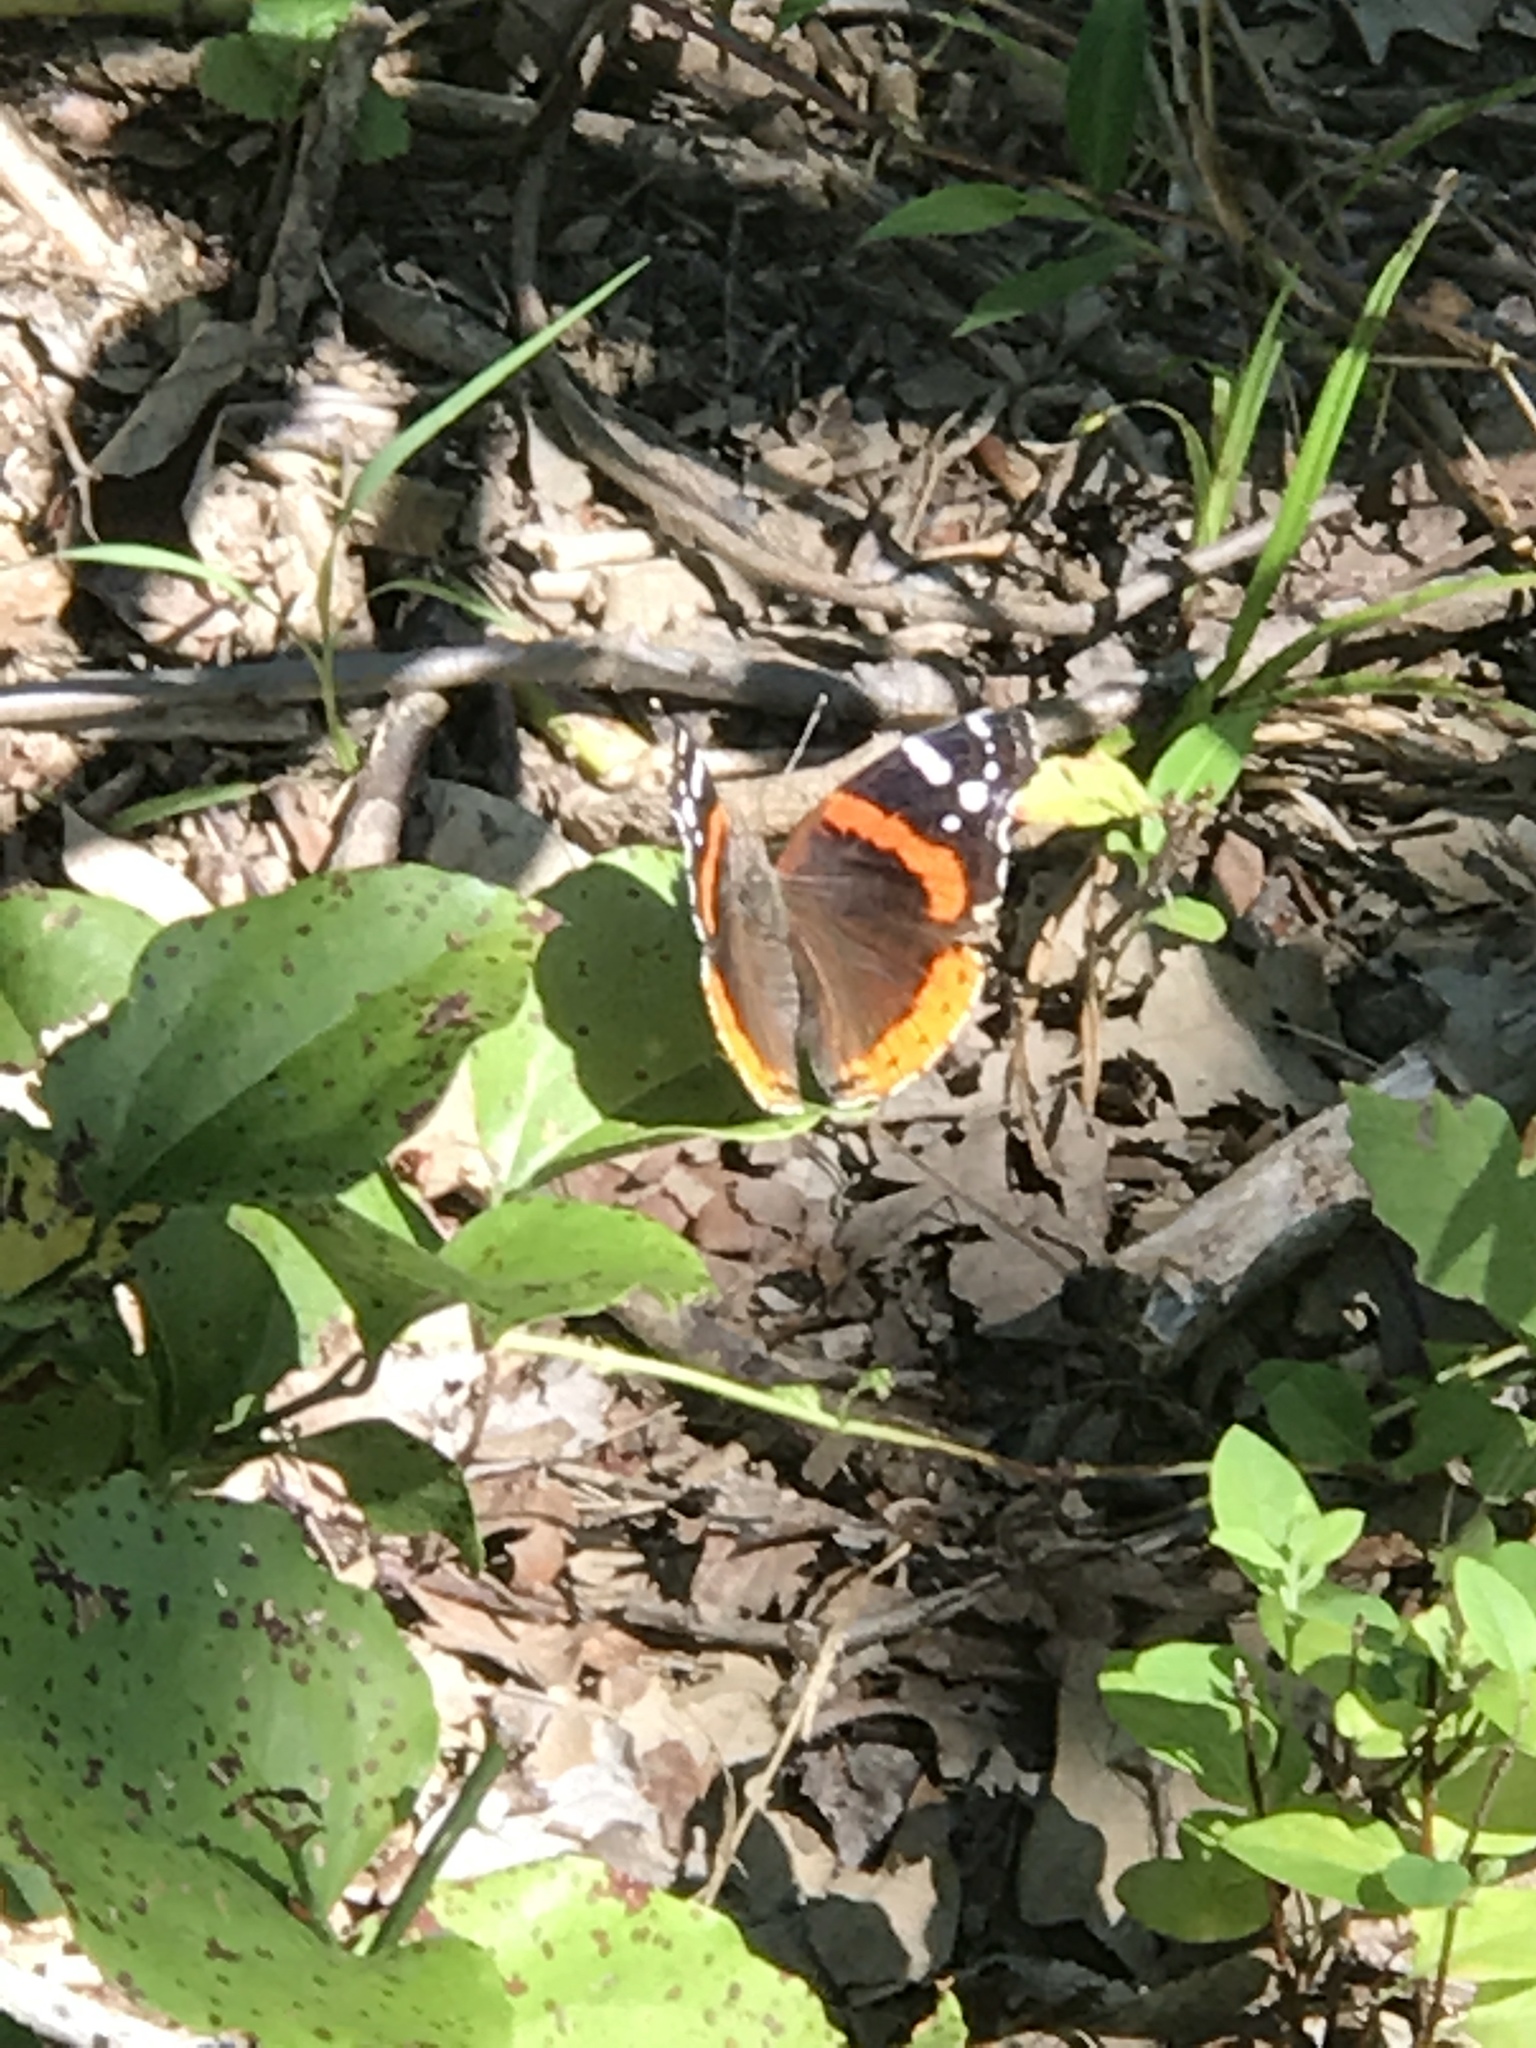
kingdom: Animalia
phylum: Arthropoda
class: Insecta
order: Lepidoptera
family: Nymphalidae
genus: Vanessa
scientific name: Vanessa atalanta
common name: Red admiral
